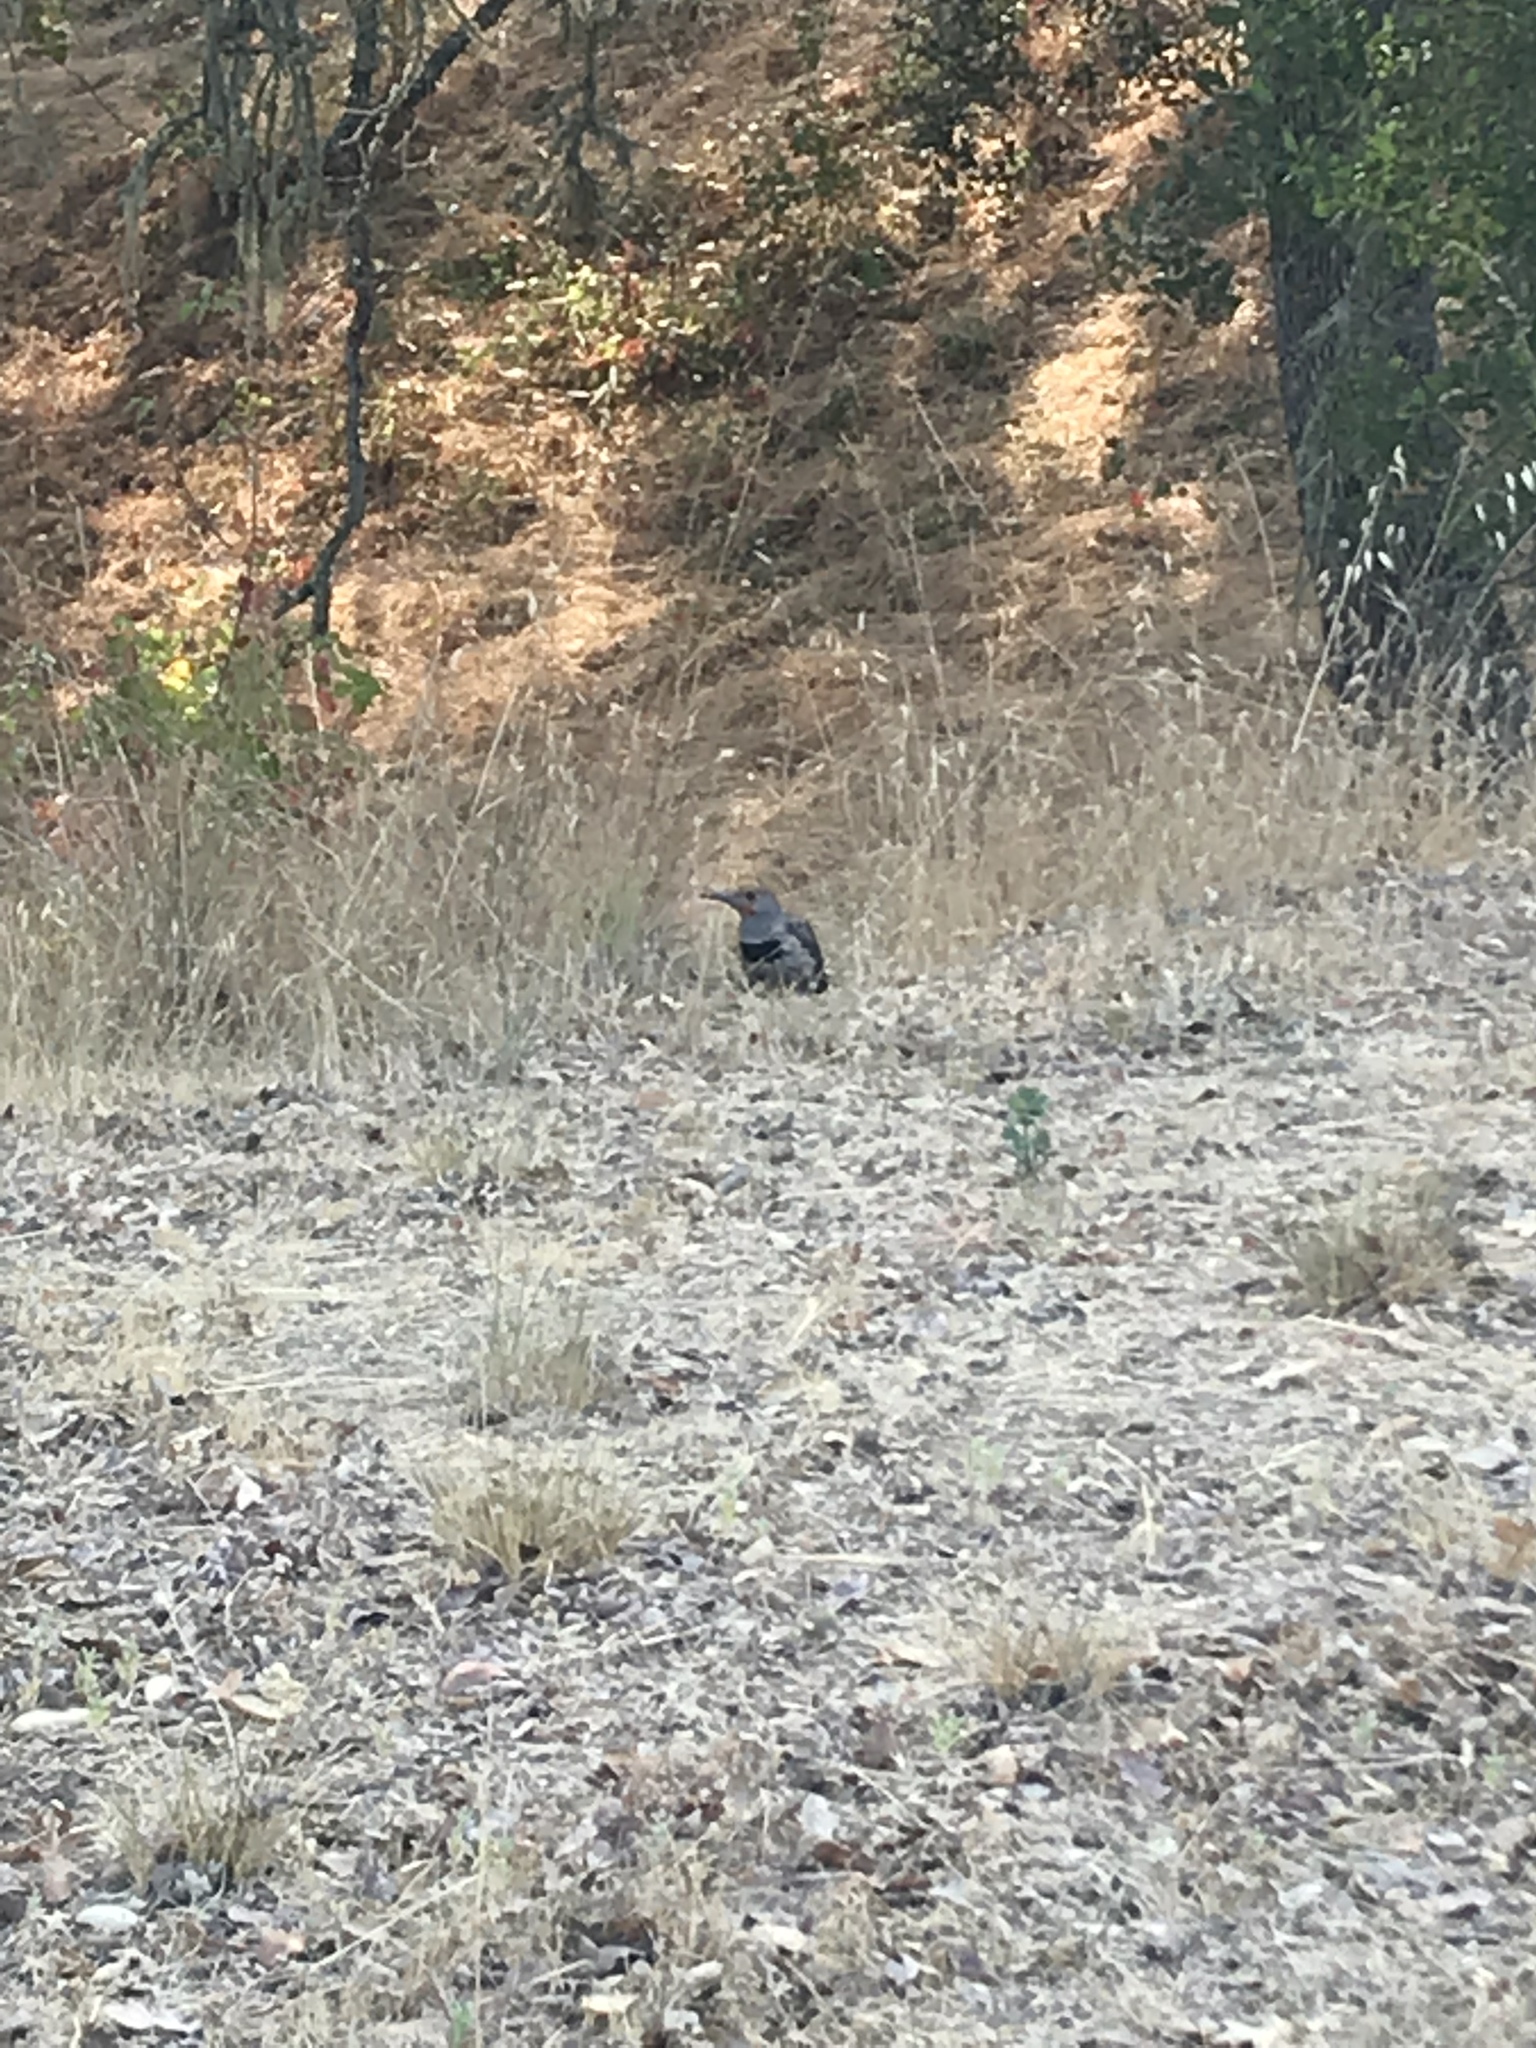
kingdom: Animalia
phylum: Chordata
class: Aves
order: Piciformes
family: Picidae
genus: Colaptes
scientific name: Colaptes auratus
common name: Northern flicker
